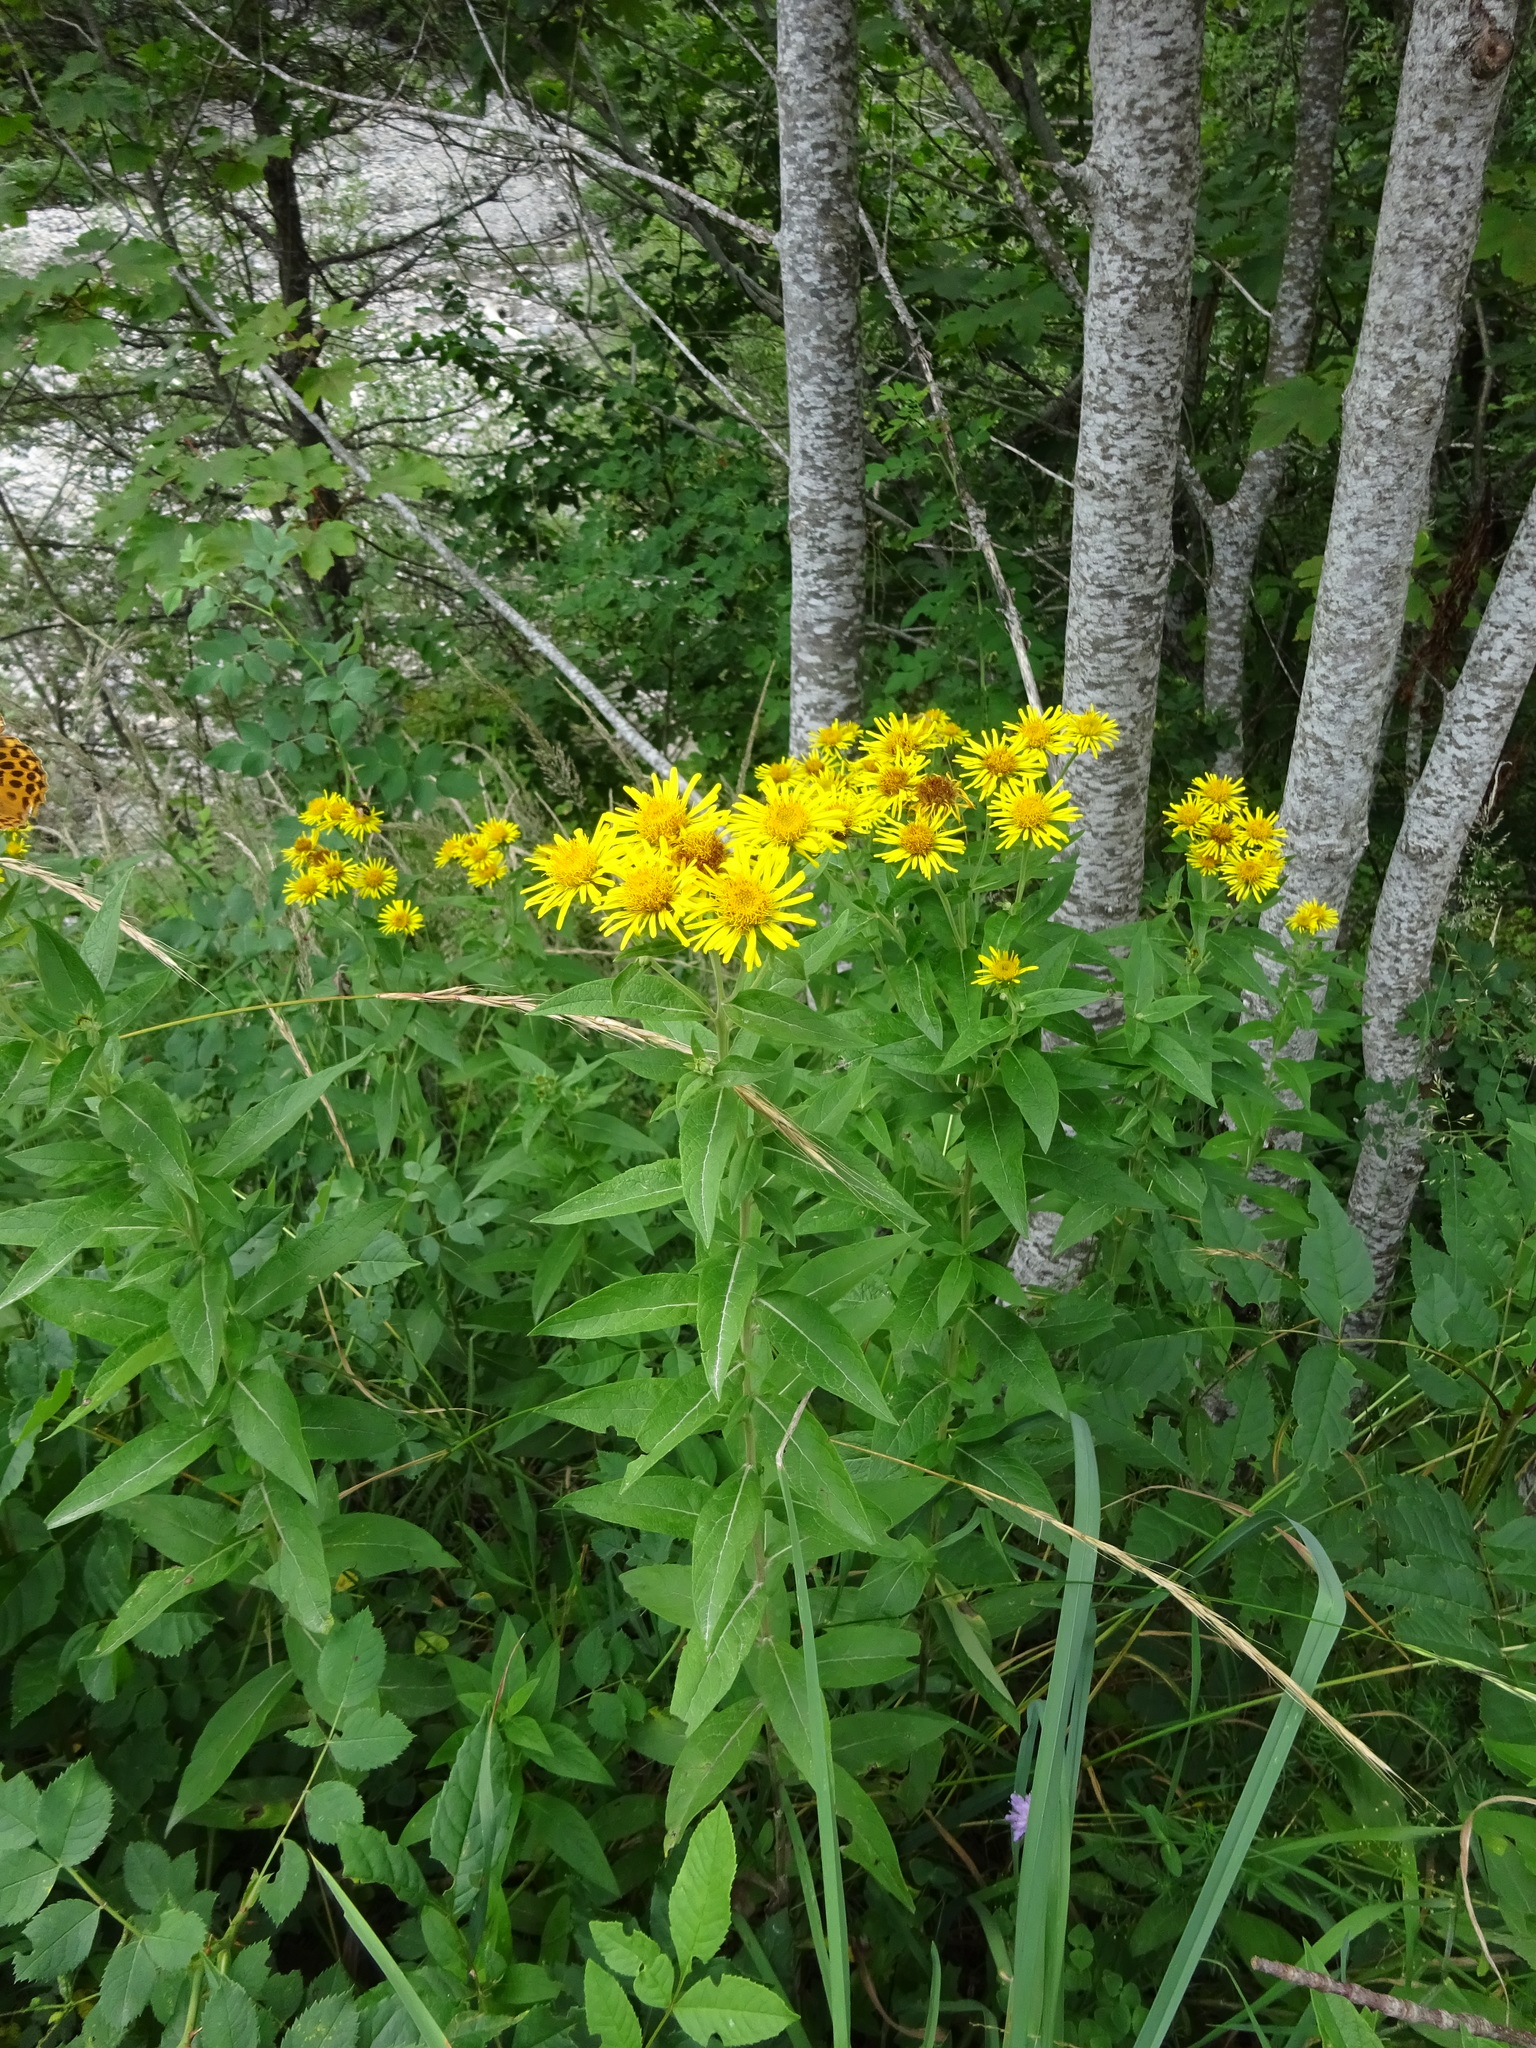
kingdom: Plantae
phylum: Tracheophyta
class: Magnoliopsida
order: Asterales
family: Asteraceae
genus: Pentanema
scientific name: Pentanema helveticum
